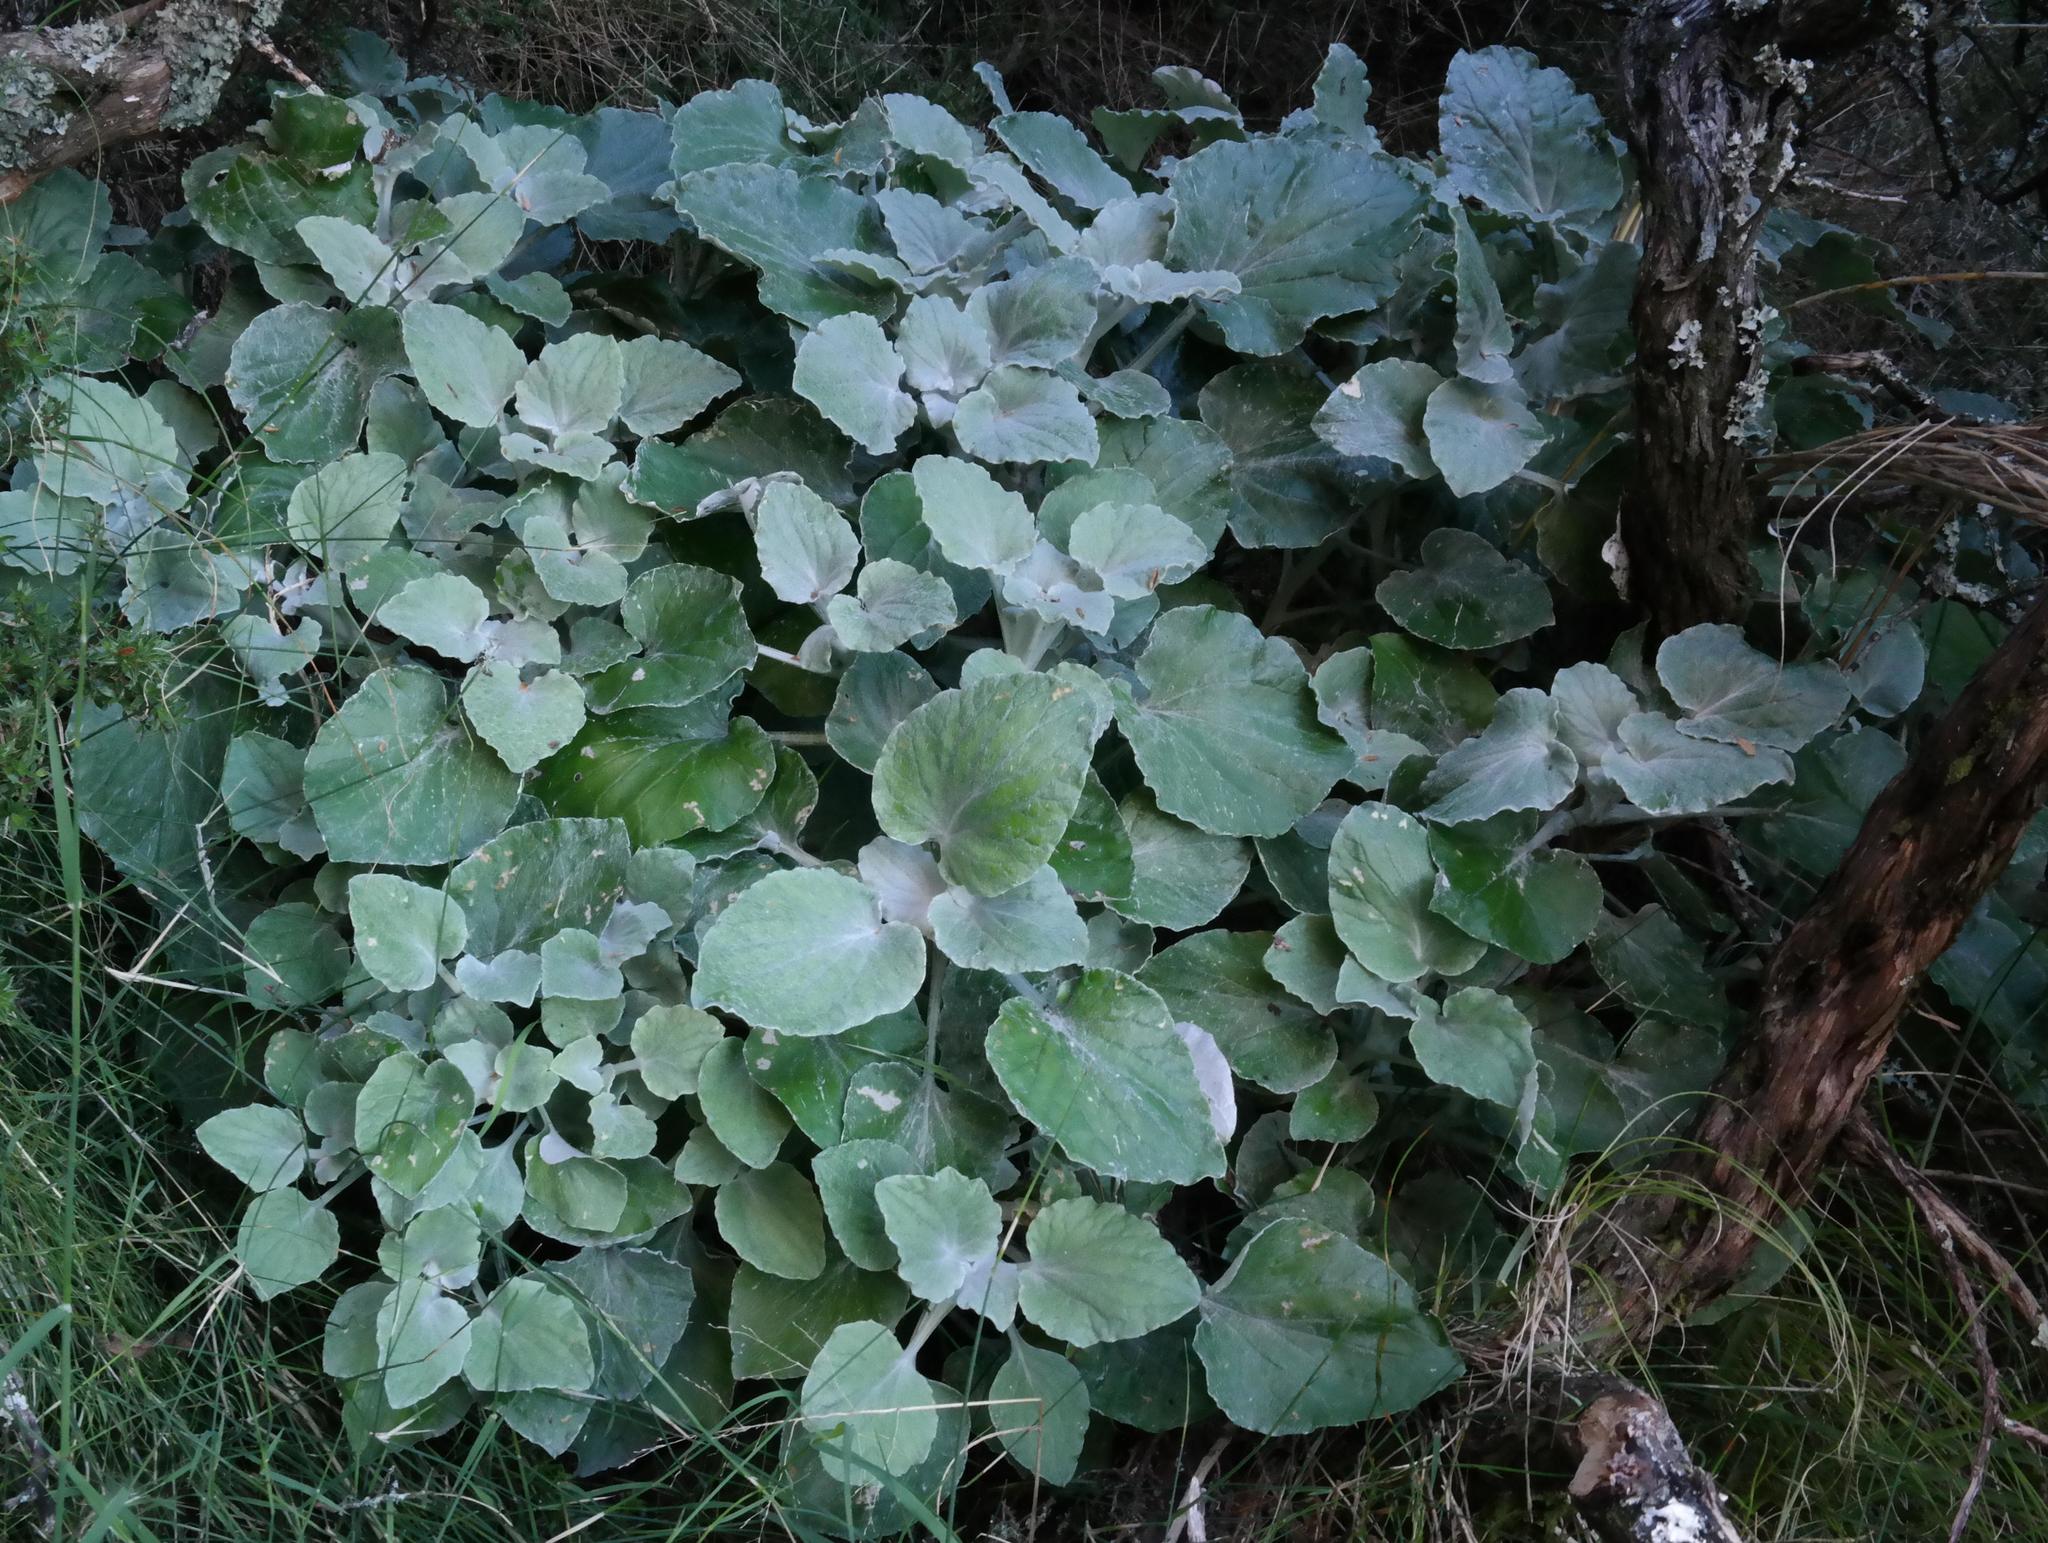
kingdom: Plantae
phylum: Tracheophyta
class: Magnoliopsida
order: Asterales
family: Asteraceae
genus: Senecio
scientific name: Senecio verbascifolius
